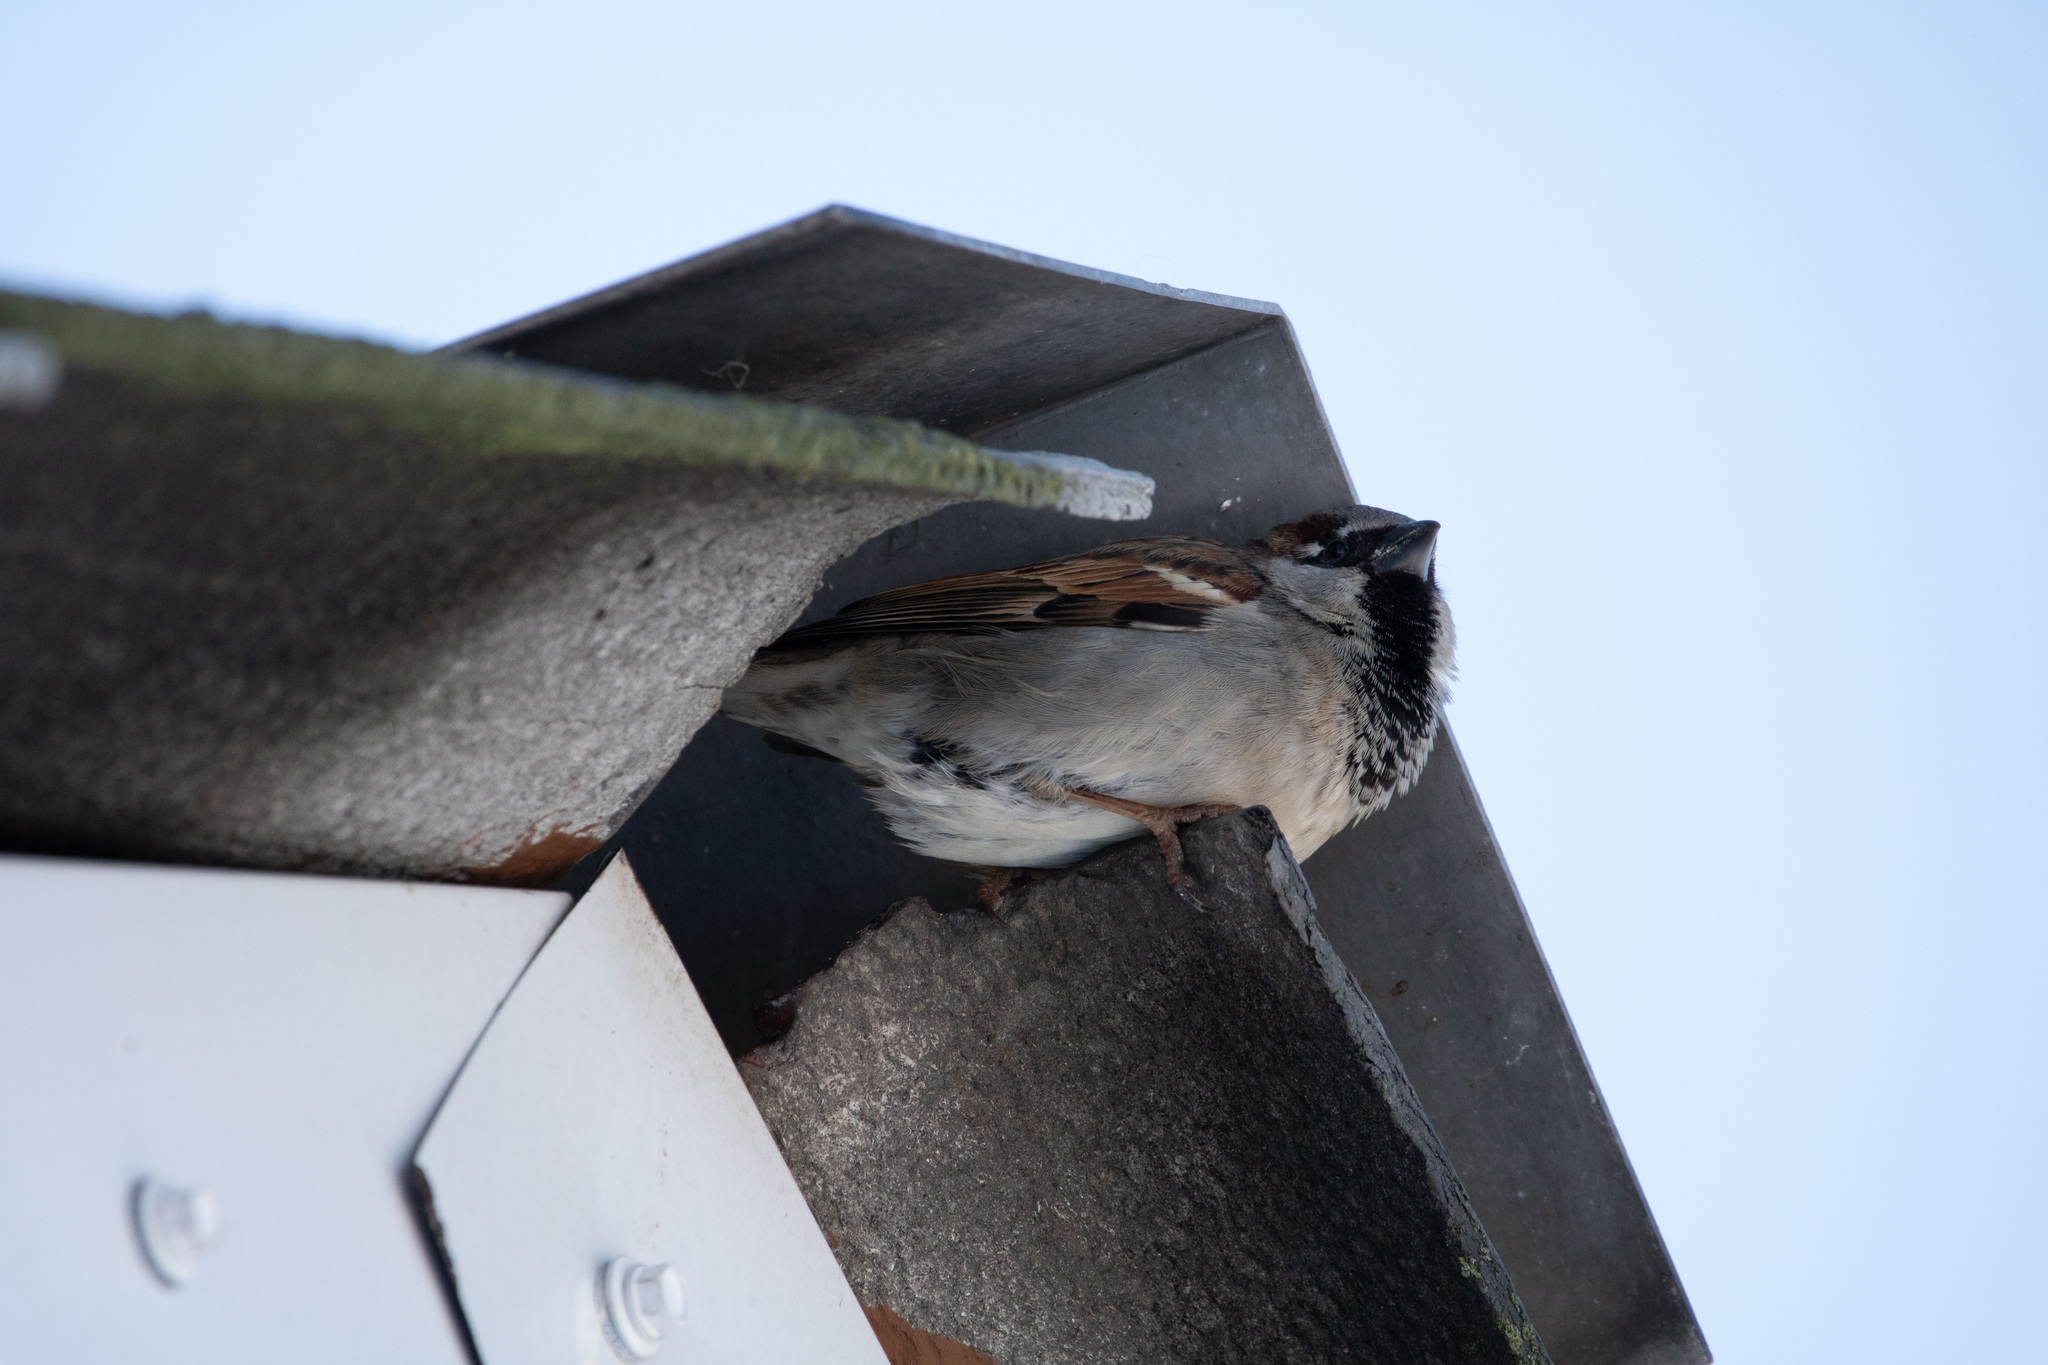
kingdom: Animalia
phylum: Chordata
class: Aves
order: Passeriformes
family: Passeridae
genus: Passer
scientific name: Passer domesticus
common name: House sparrow
